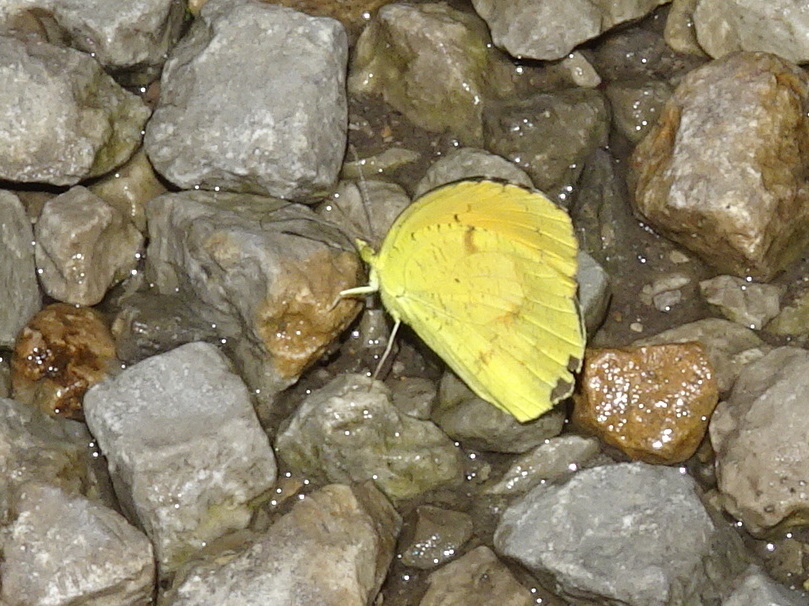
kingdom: Animalia
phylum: Arthropoda
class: Insecta
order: Lepidoptera
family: Pieridae
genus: Abaeis
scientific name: Abaeis nicippe
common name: Sleepy orange
